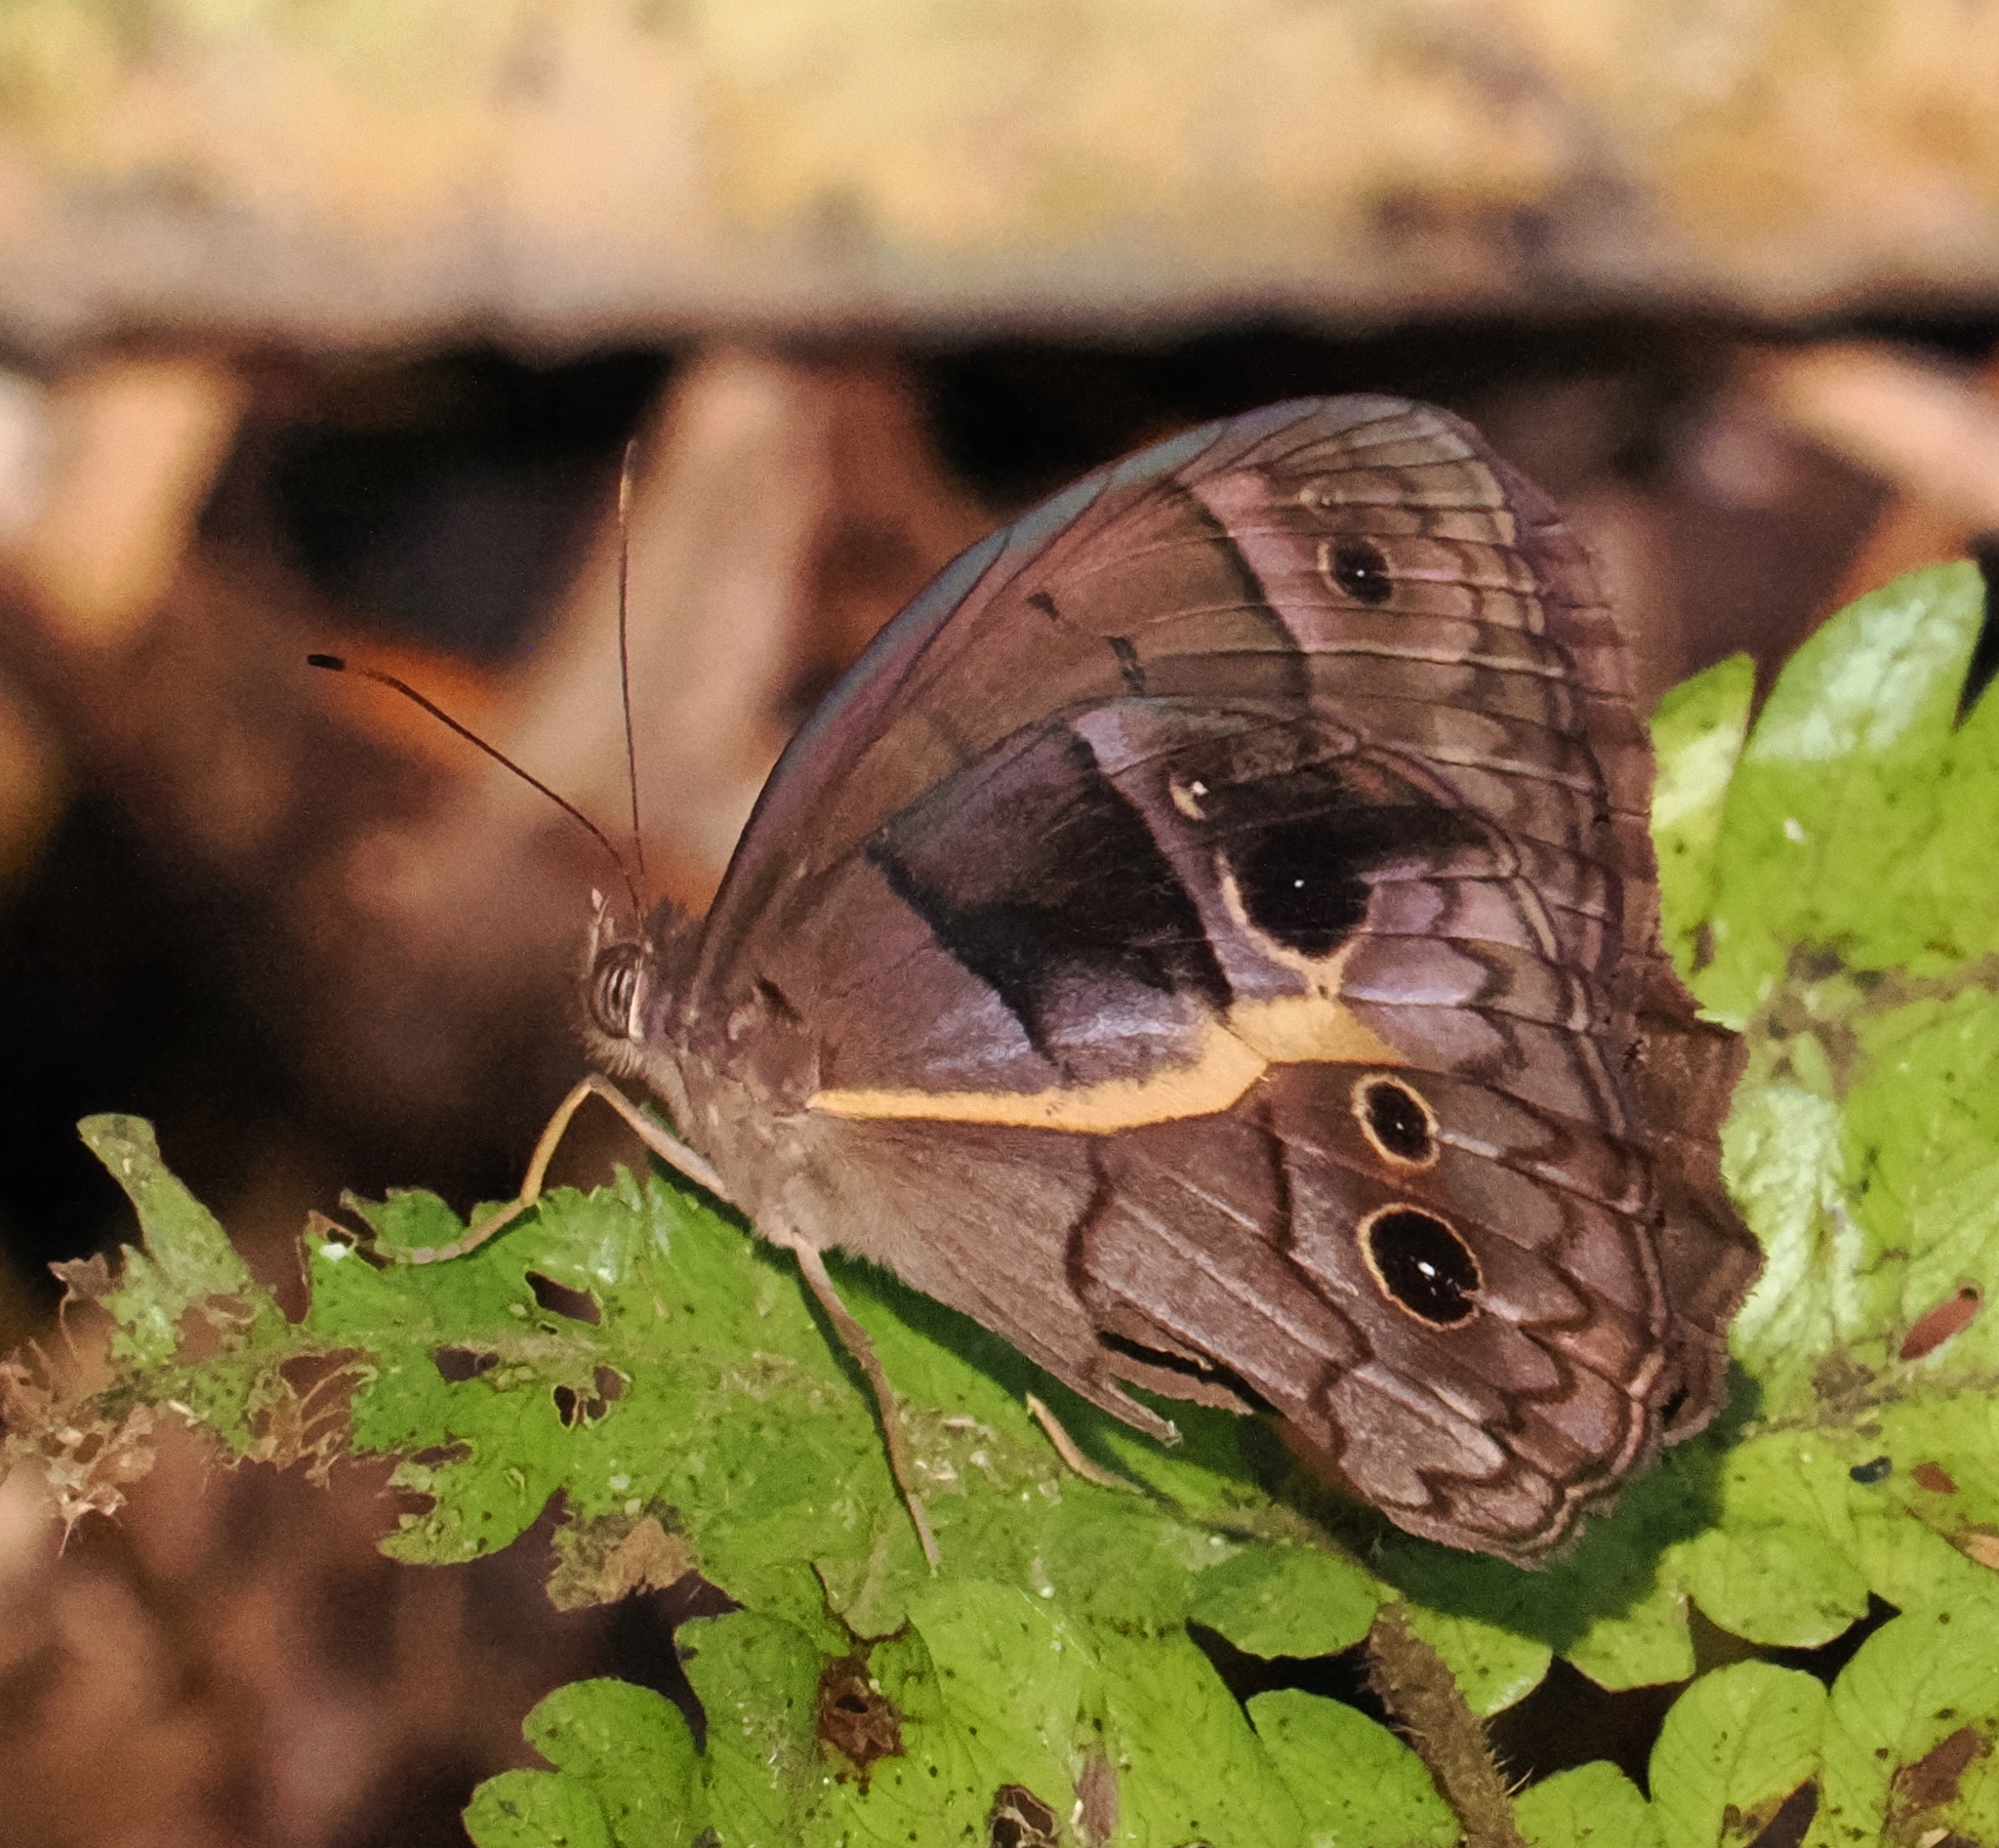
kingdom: Animalia
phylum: Arthropoda
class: Insecta
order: Lepidoptera
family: Nymphalidae
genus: Posttaygetis
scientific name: Posttaygetis penelea
